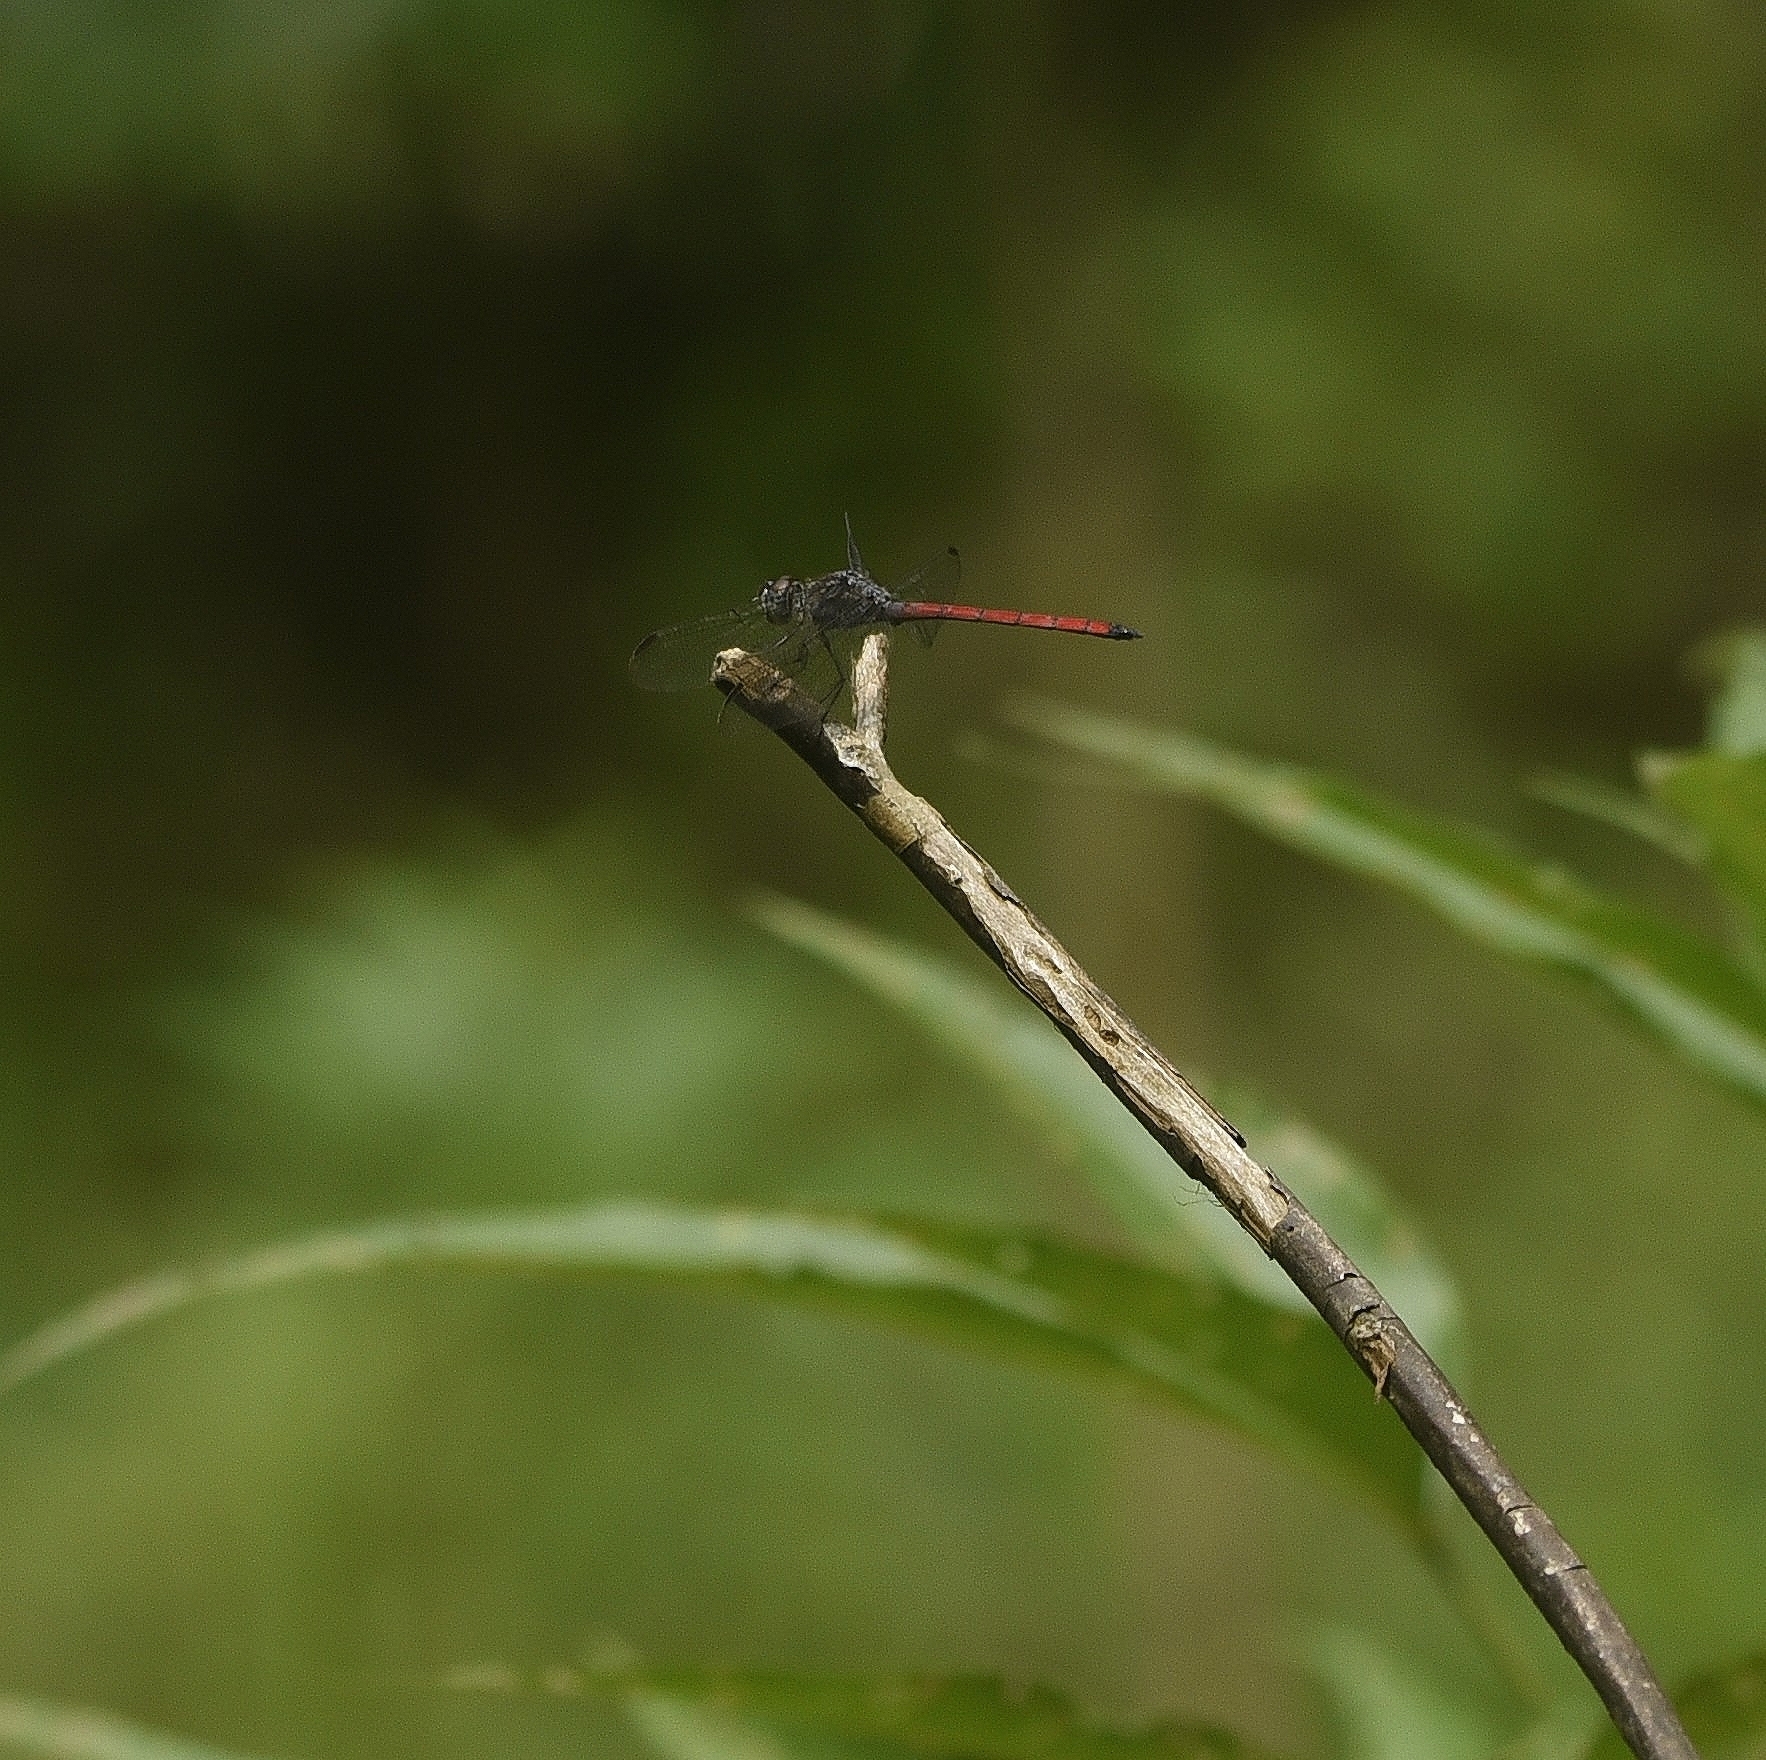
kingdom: Animalia
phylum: Arthropoda
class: Insecta
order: Odonata
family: Libellulidae
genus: Lathrecista
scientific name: Lathrecista asiatica
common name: Scarlet grenadier
